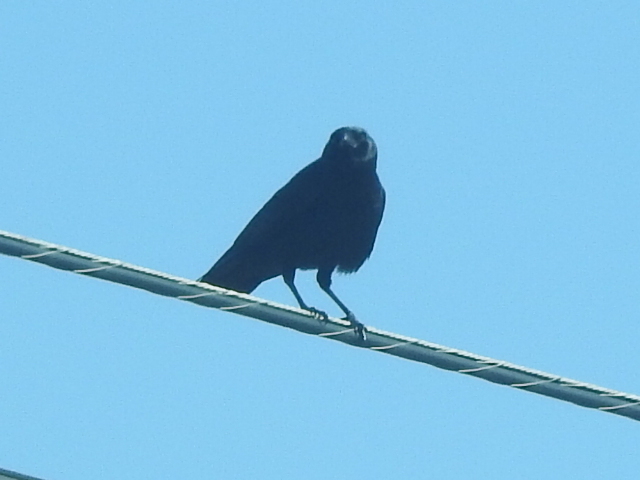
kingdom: Animalia
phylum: Chordata
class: Aves
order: Passeriformes
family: Corvidae
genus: Corvus
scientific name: Corvus brachyrhynchos
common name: American crow
